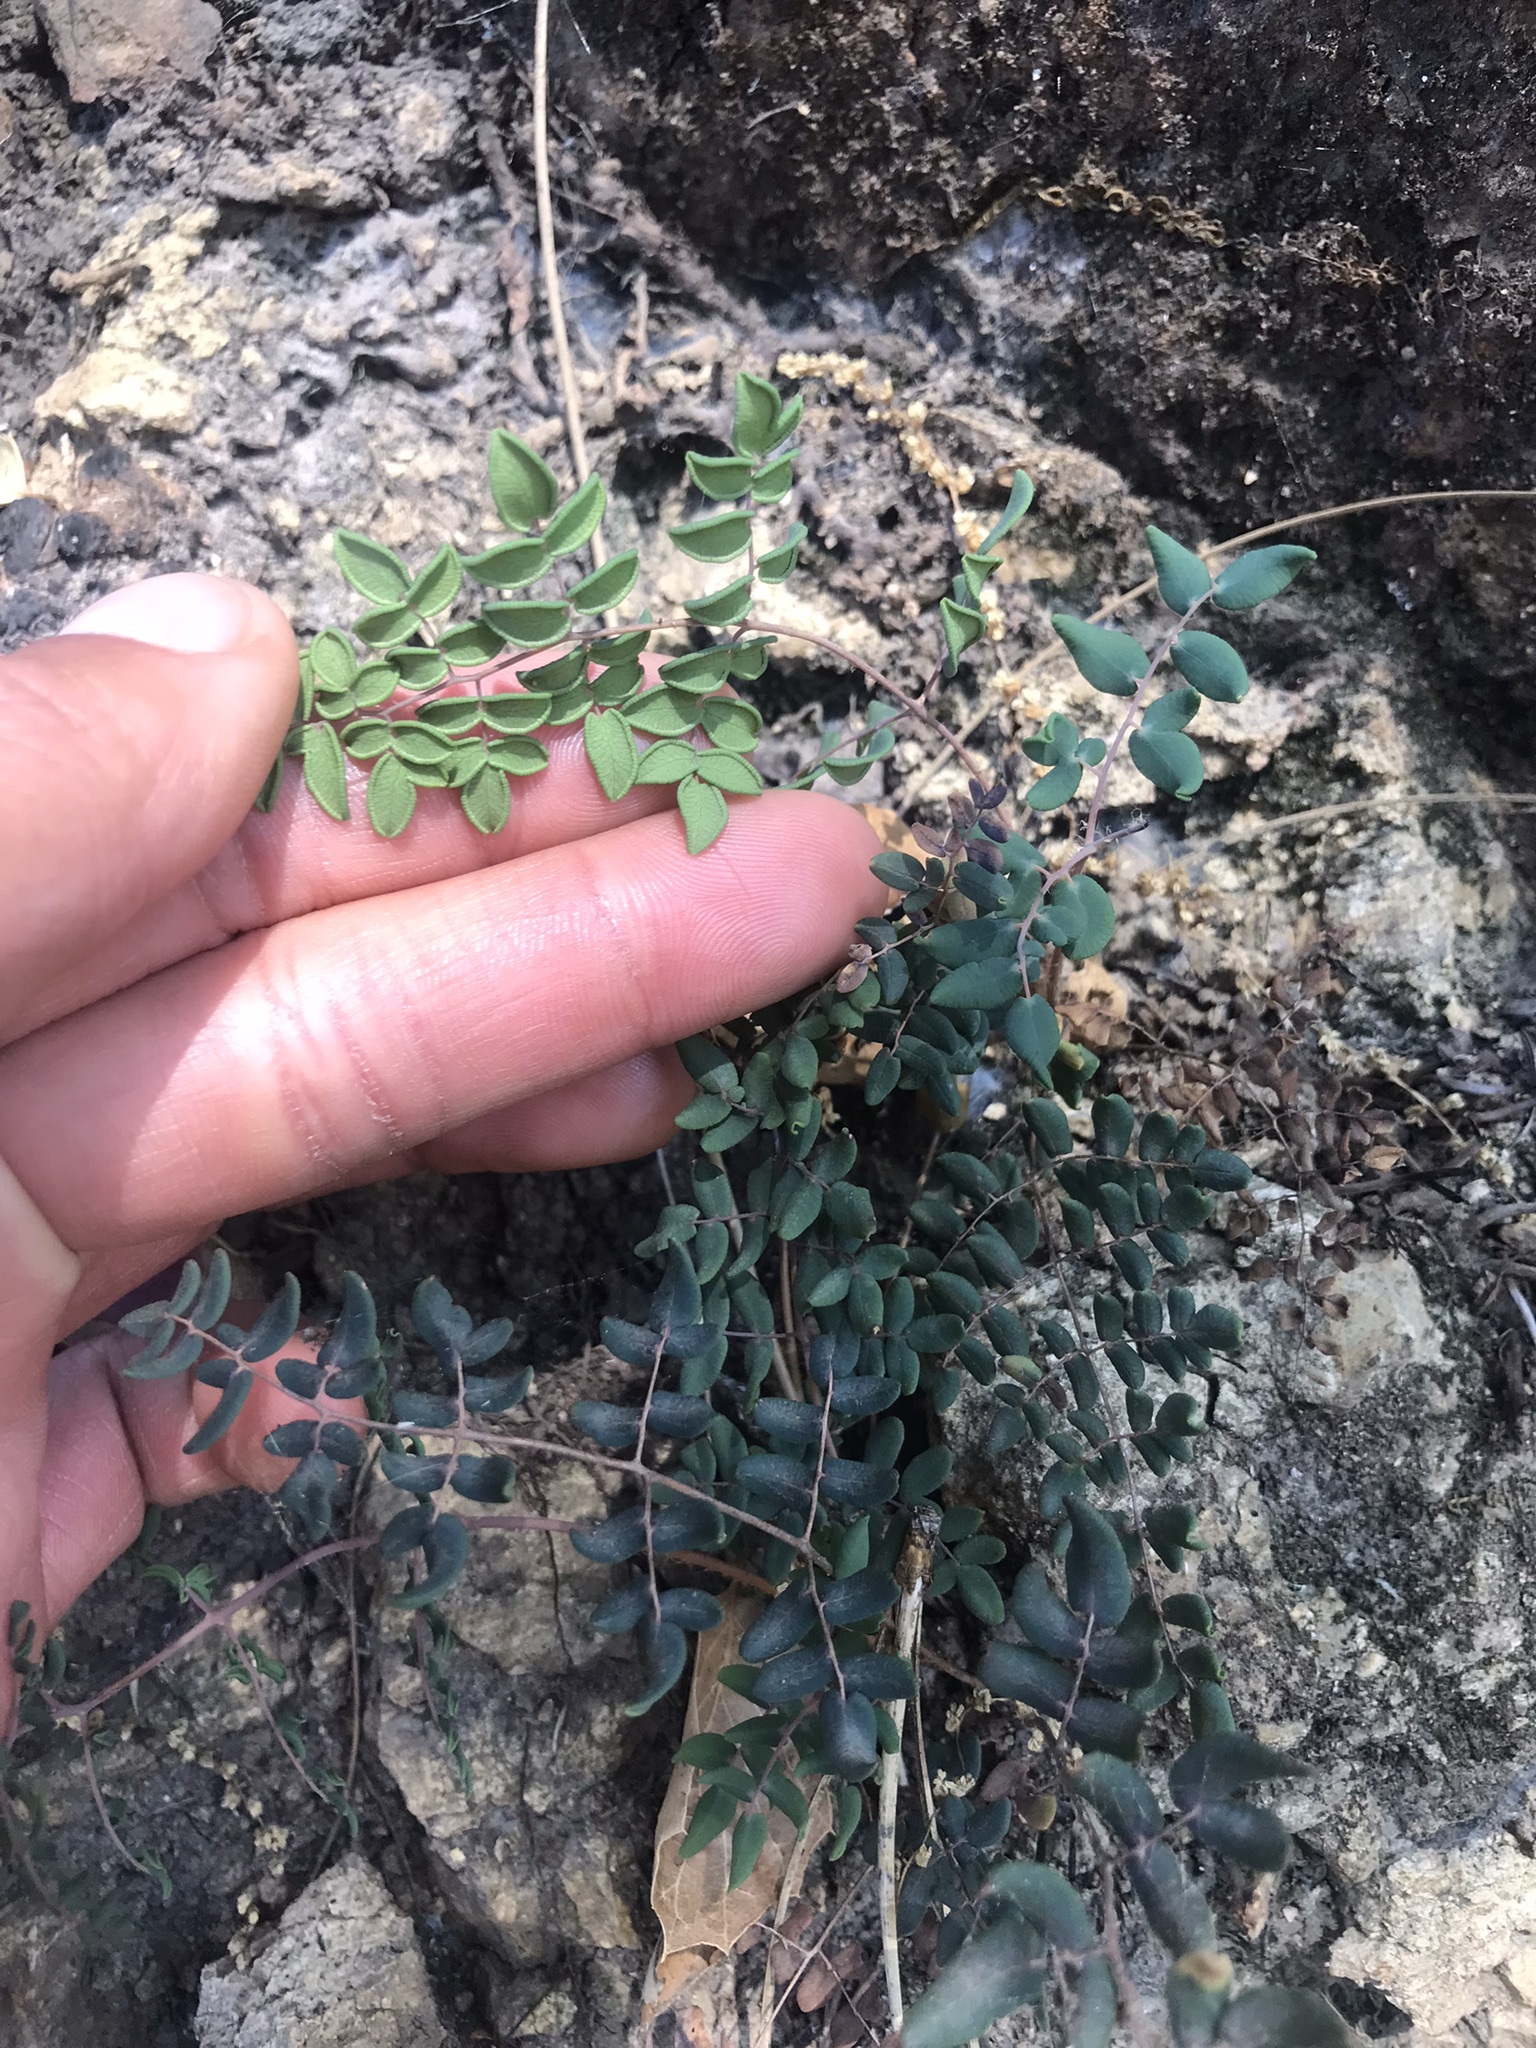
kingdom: Plantae
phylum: Tracheophyta
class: Polypodiopsida
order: Polypodiales
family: Pteridaceae
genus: Pellaea
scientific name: Pellaea andromedifolia
